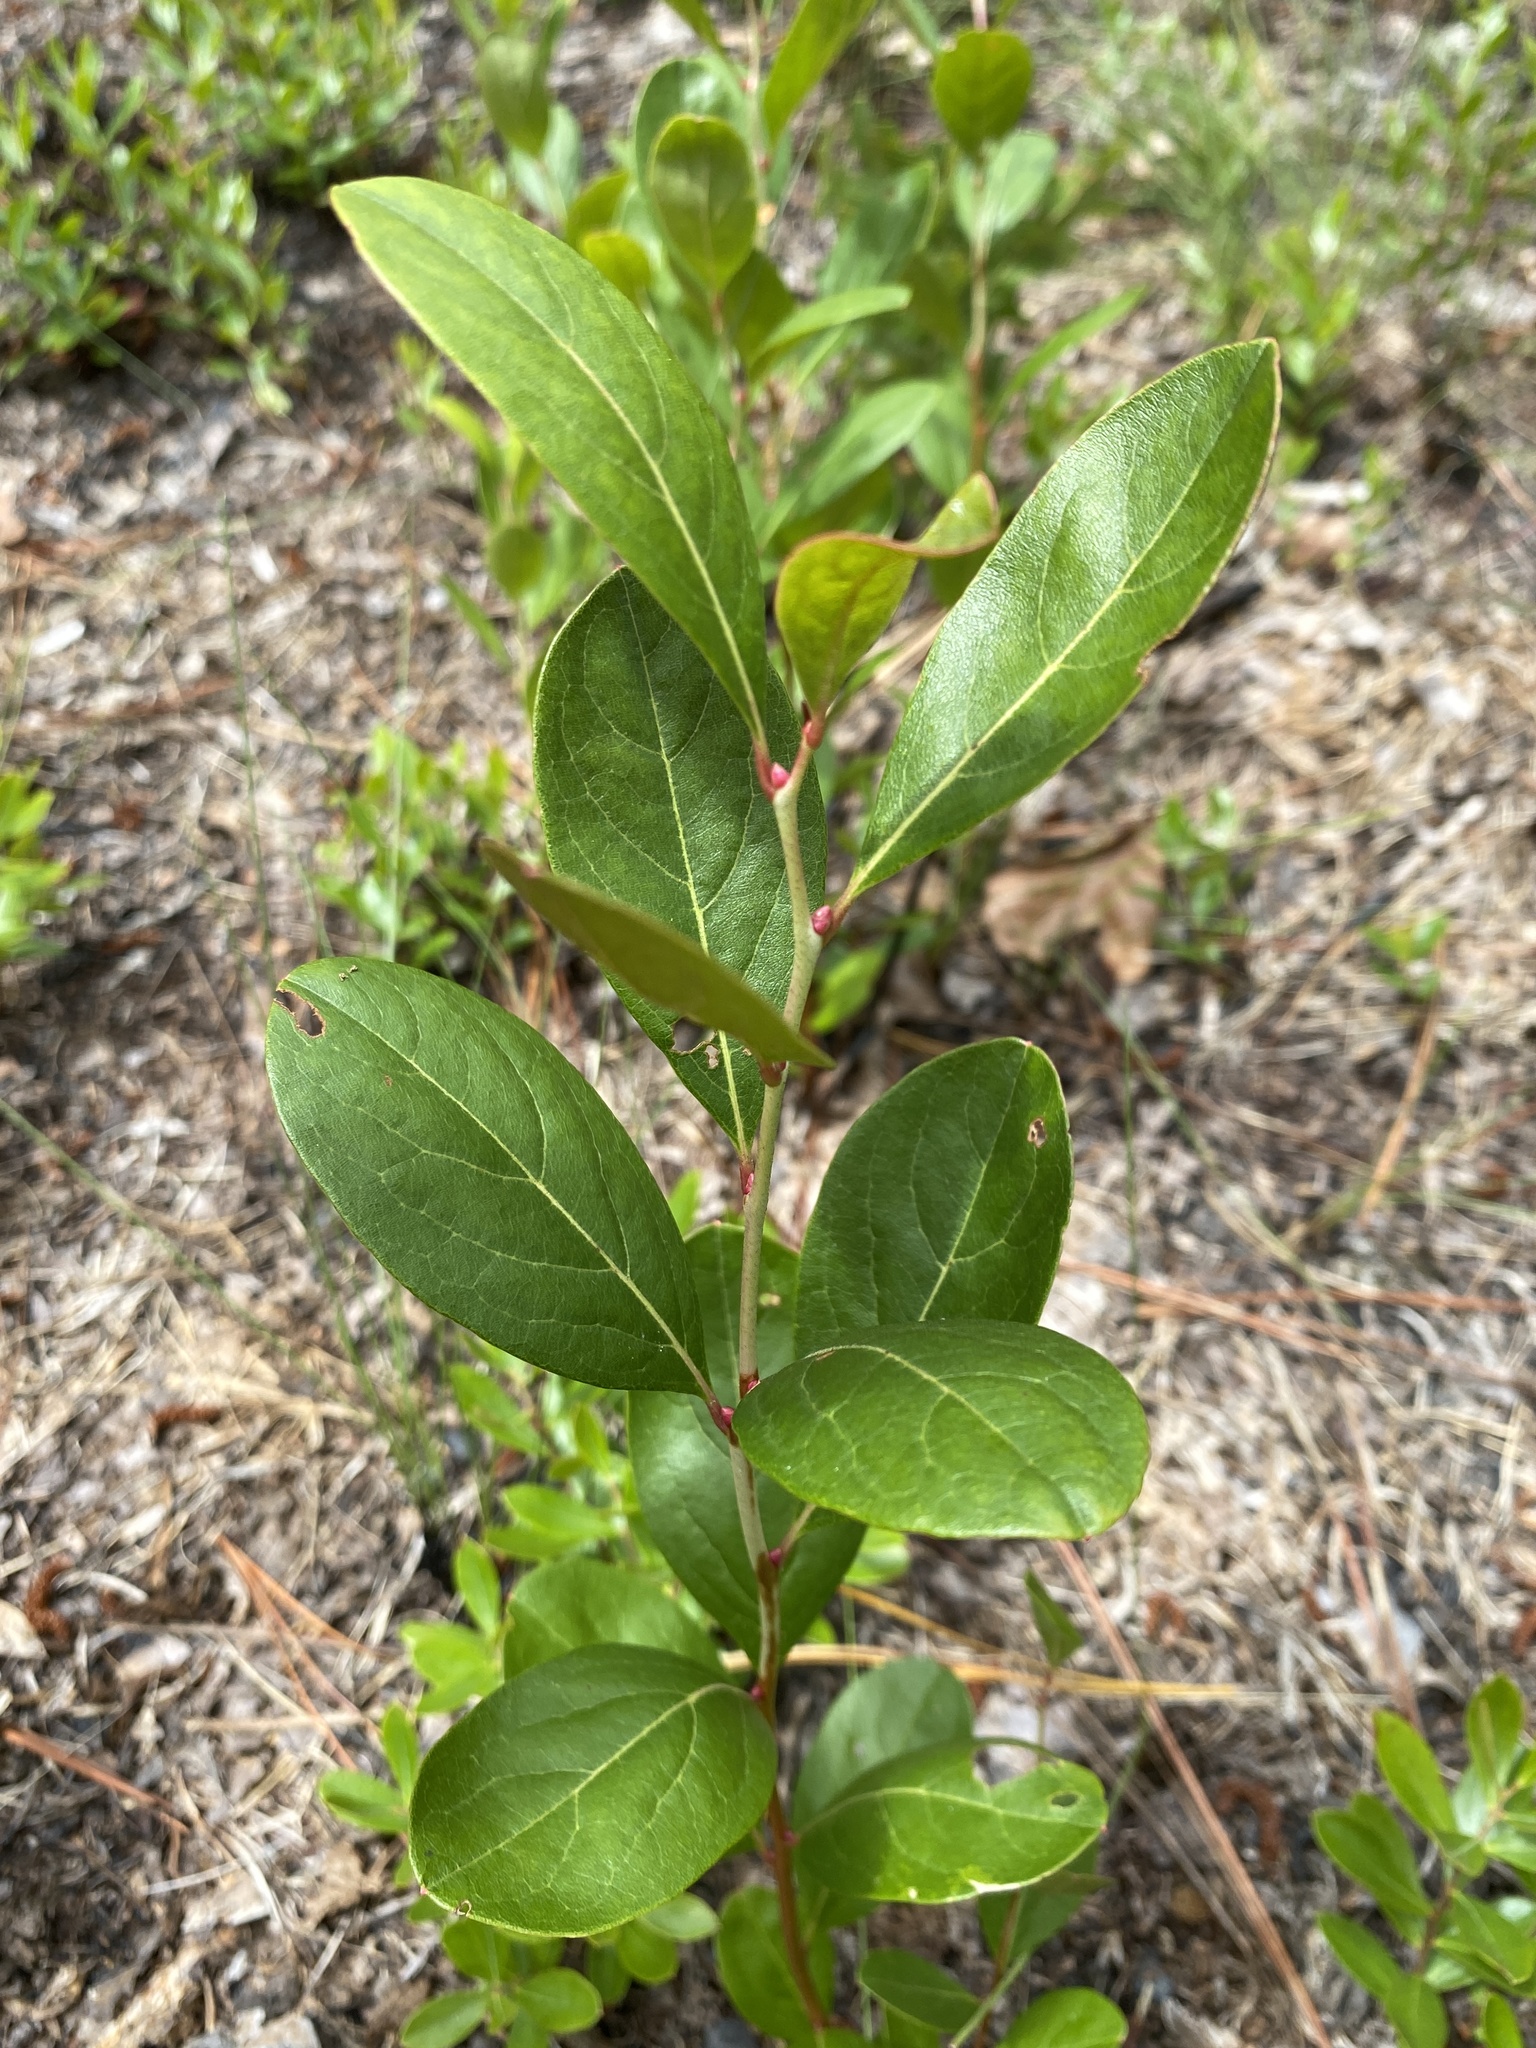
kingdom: Plantae
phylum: Tracheophyta
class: Magnoliopsida
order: Ericales
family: Ericaceae
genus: Lyonia
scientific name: Lyonia mariana
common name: Staggerbush
